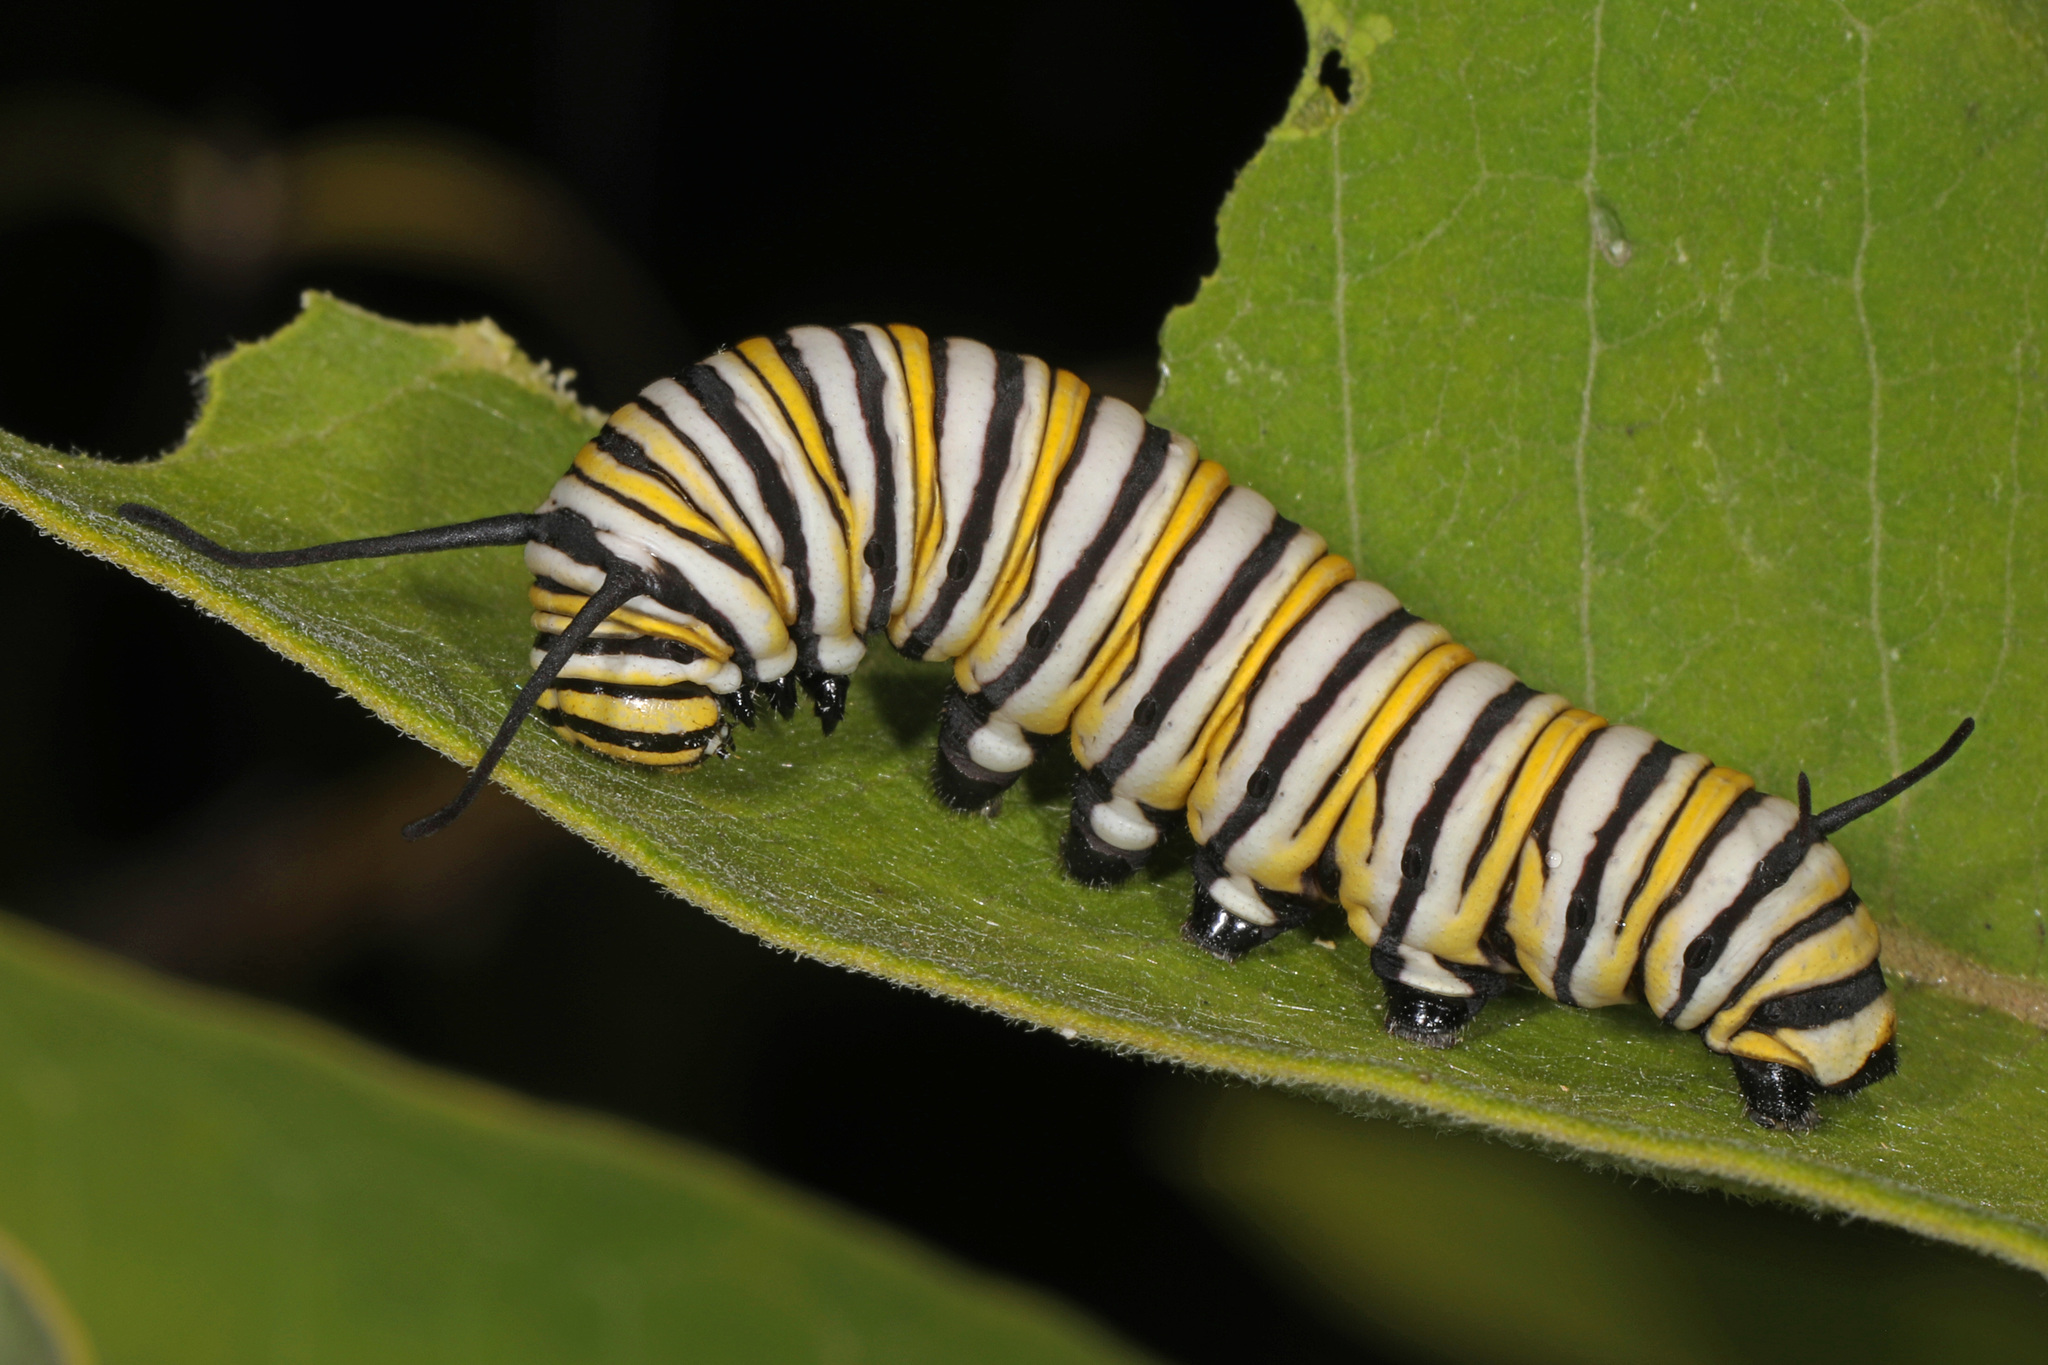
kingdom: Animalia
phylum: Arthropoda
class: Insecta
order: Lepidoptera
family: Nymphalidae
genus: Danaus
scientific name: Danaus plexippus
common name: Monarch
